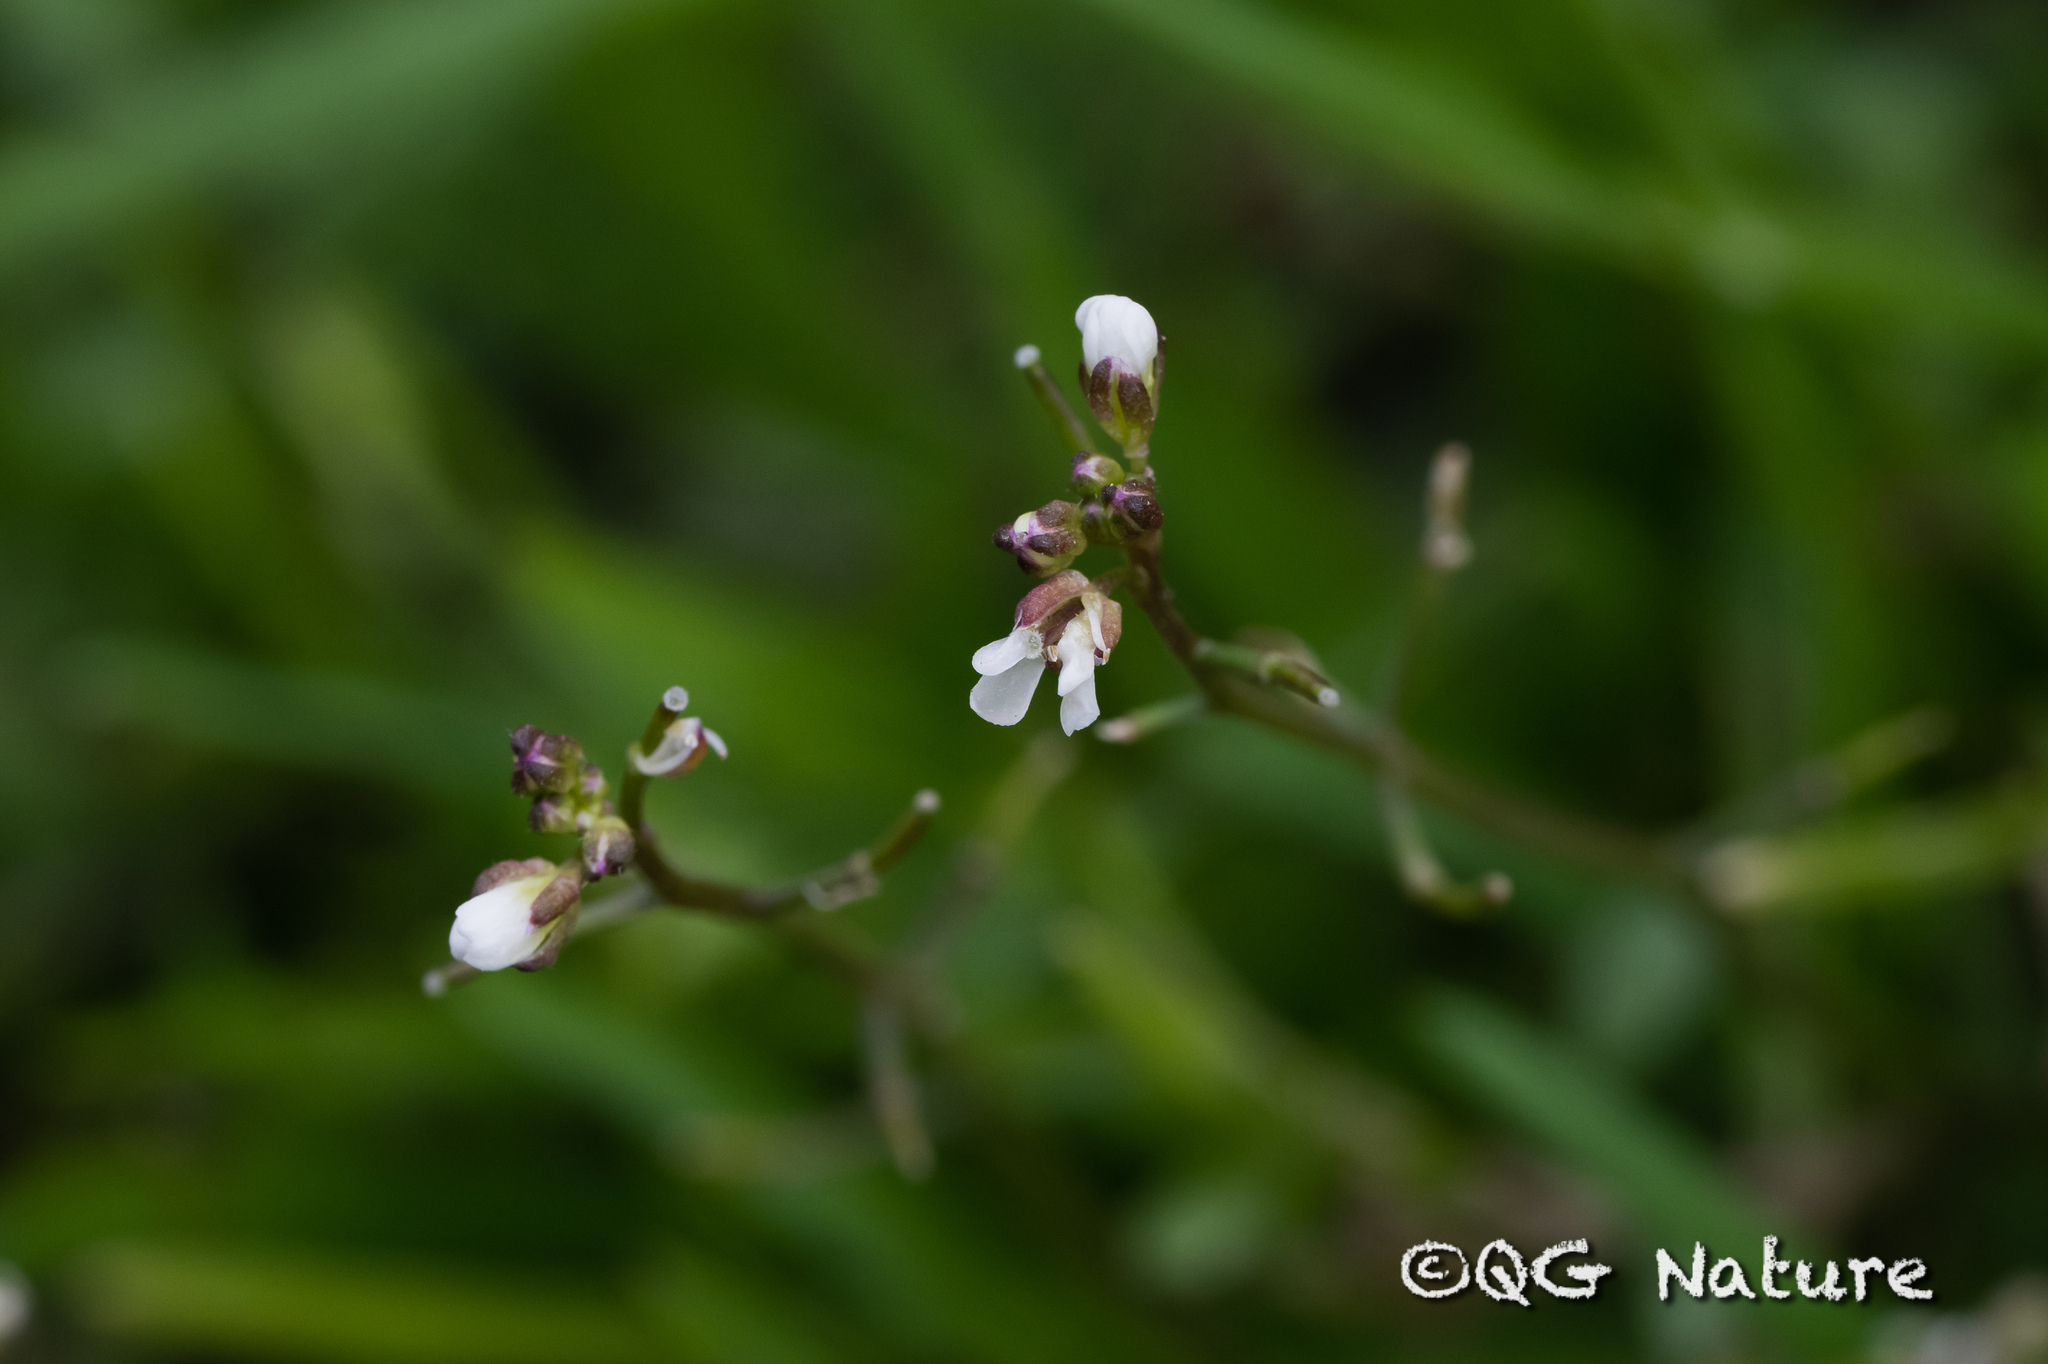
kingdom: Plantae
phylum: Tracheophyta
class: Magnoliopsida
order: Brassicales
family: Brassicaceae
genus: Cardamine
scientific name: Cardamine occulta
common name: Asian wavy bittercress
